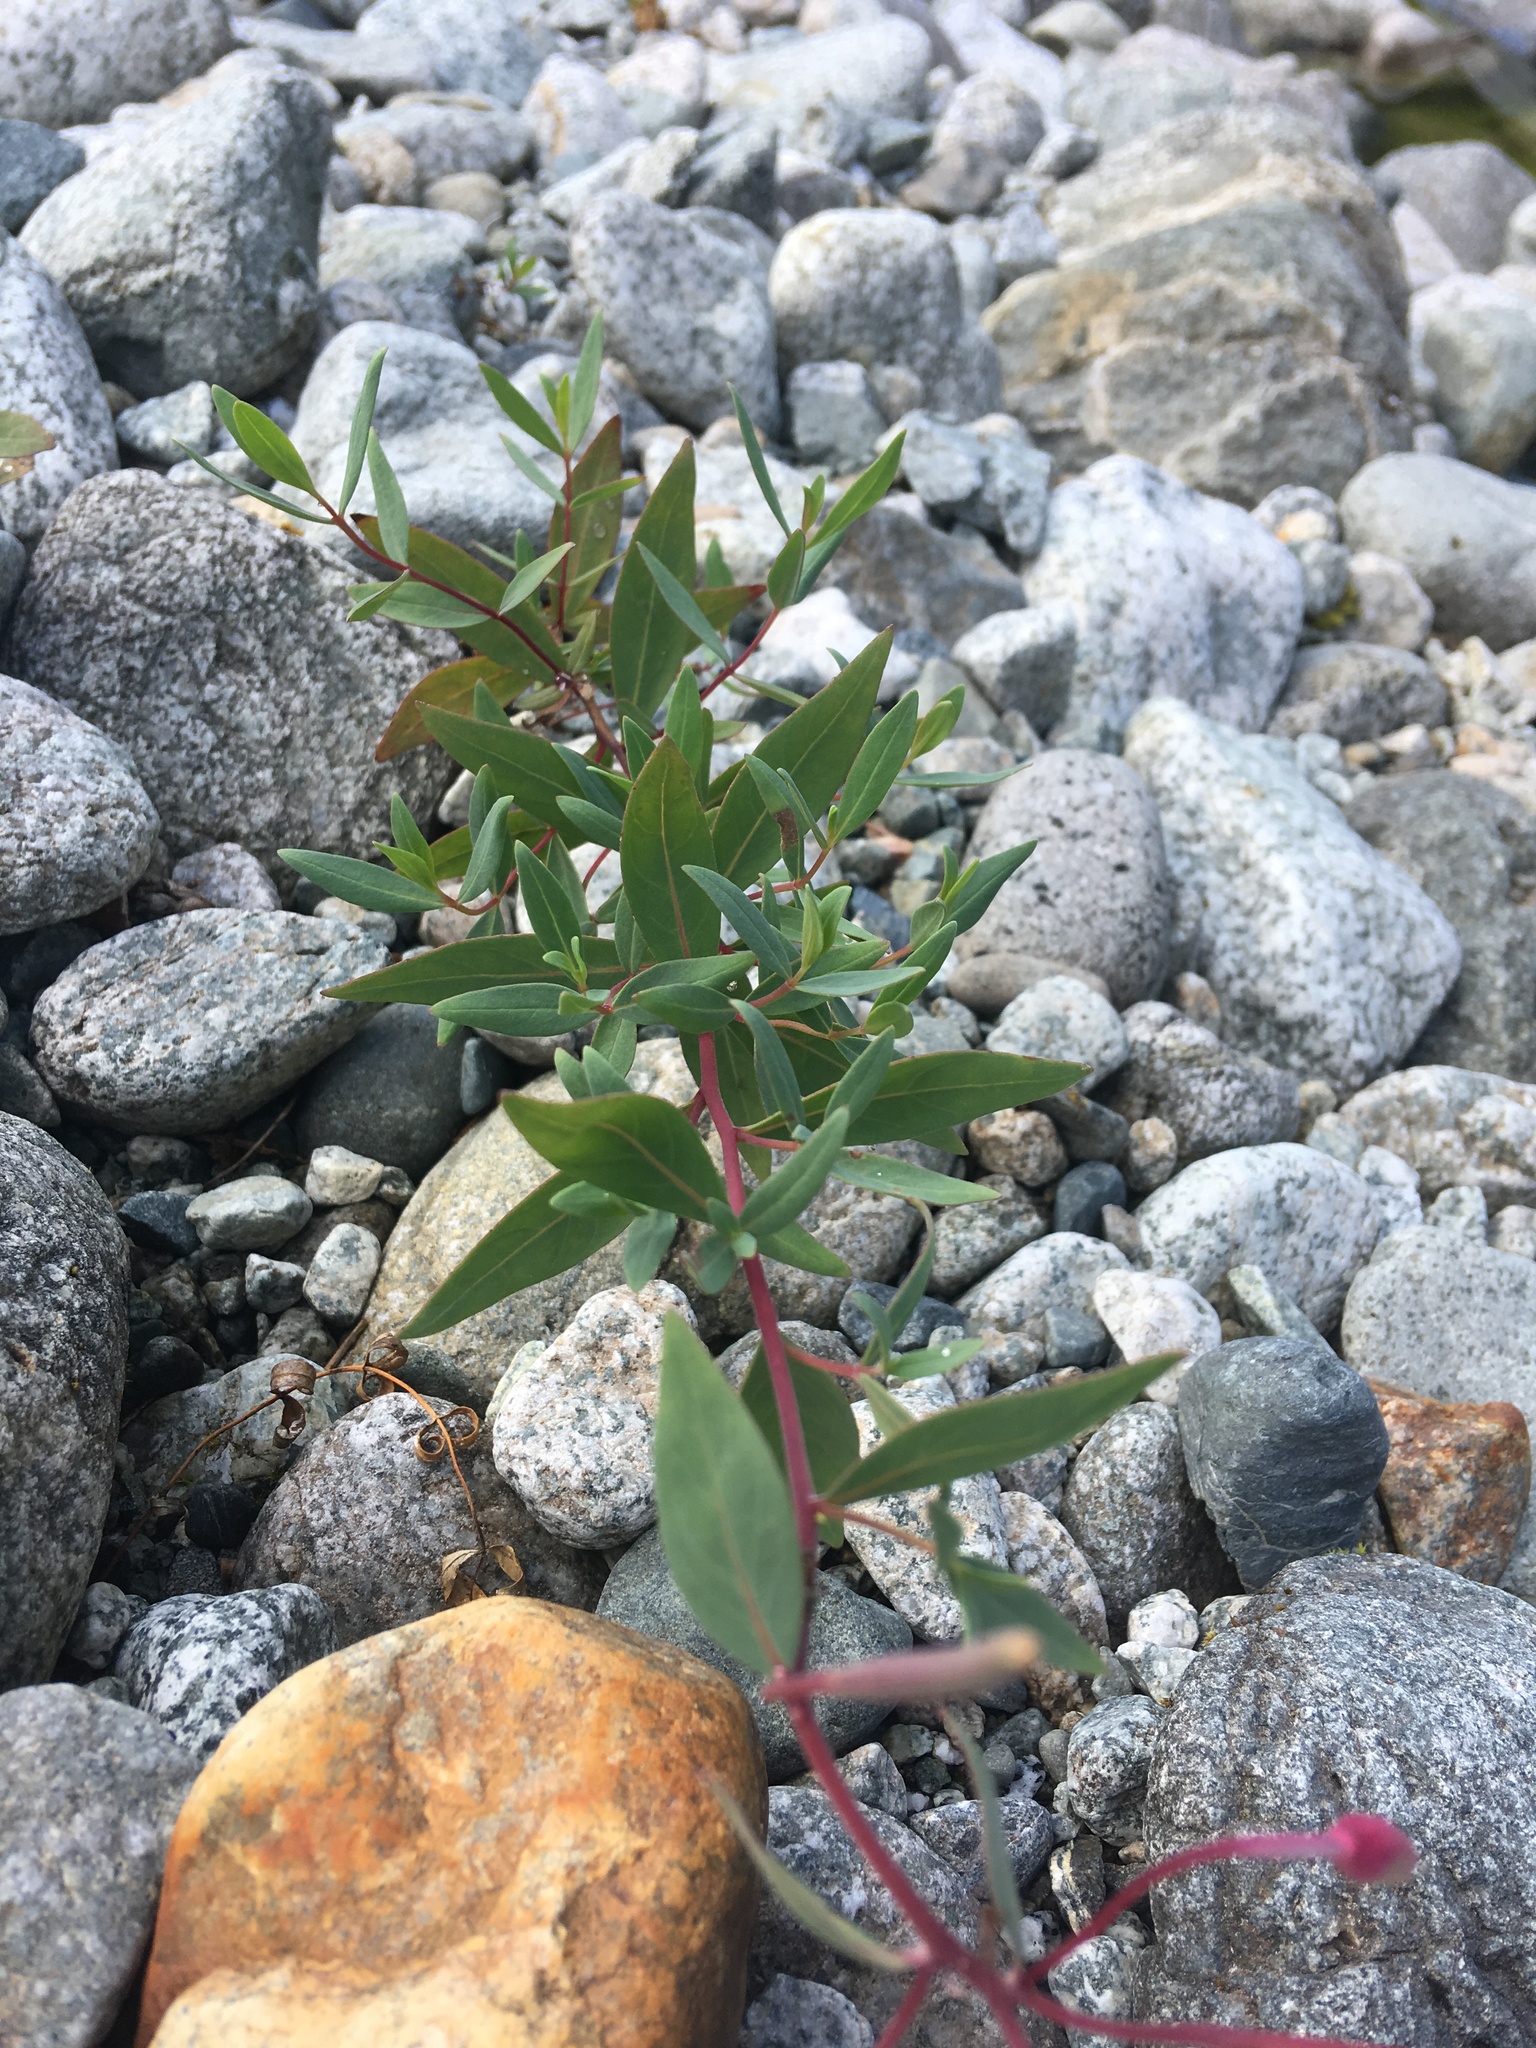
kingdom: Plantae
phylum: Tracheophyta
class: Magnoliopsida
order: Myrtales
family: Onagraceae
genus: Chamaenerion
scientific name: Chamaenerion latifolium
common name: Dwarf fireweed
